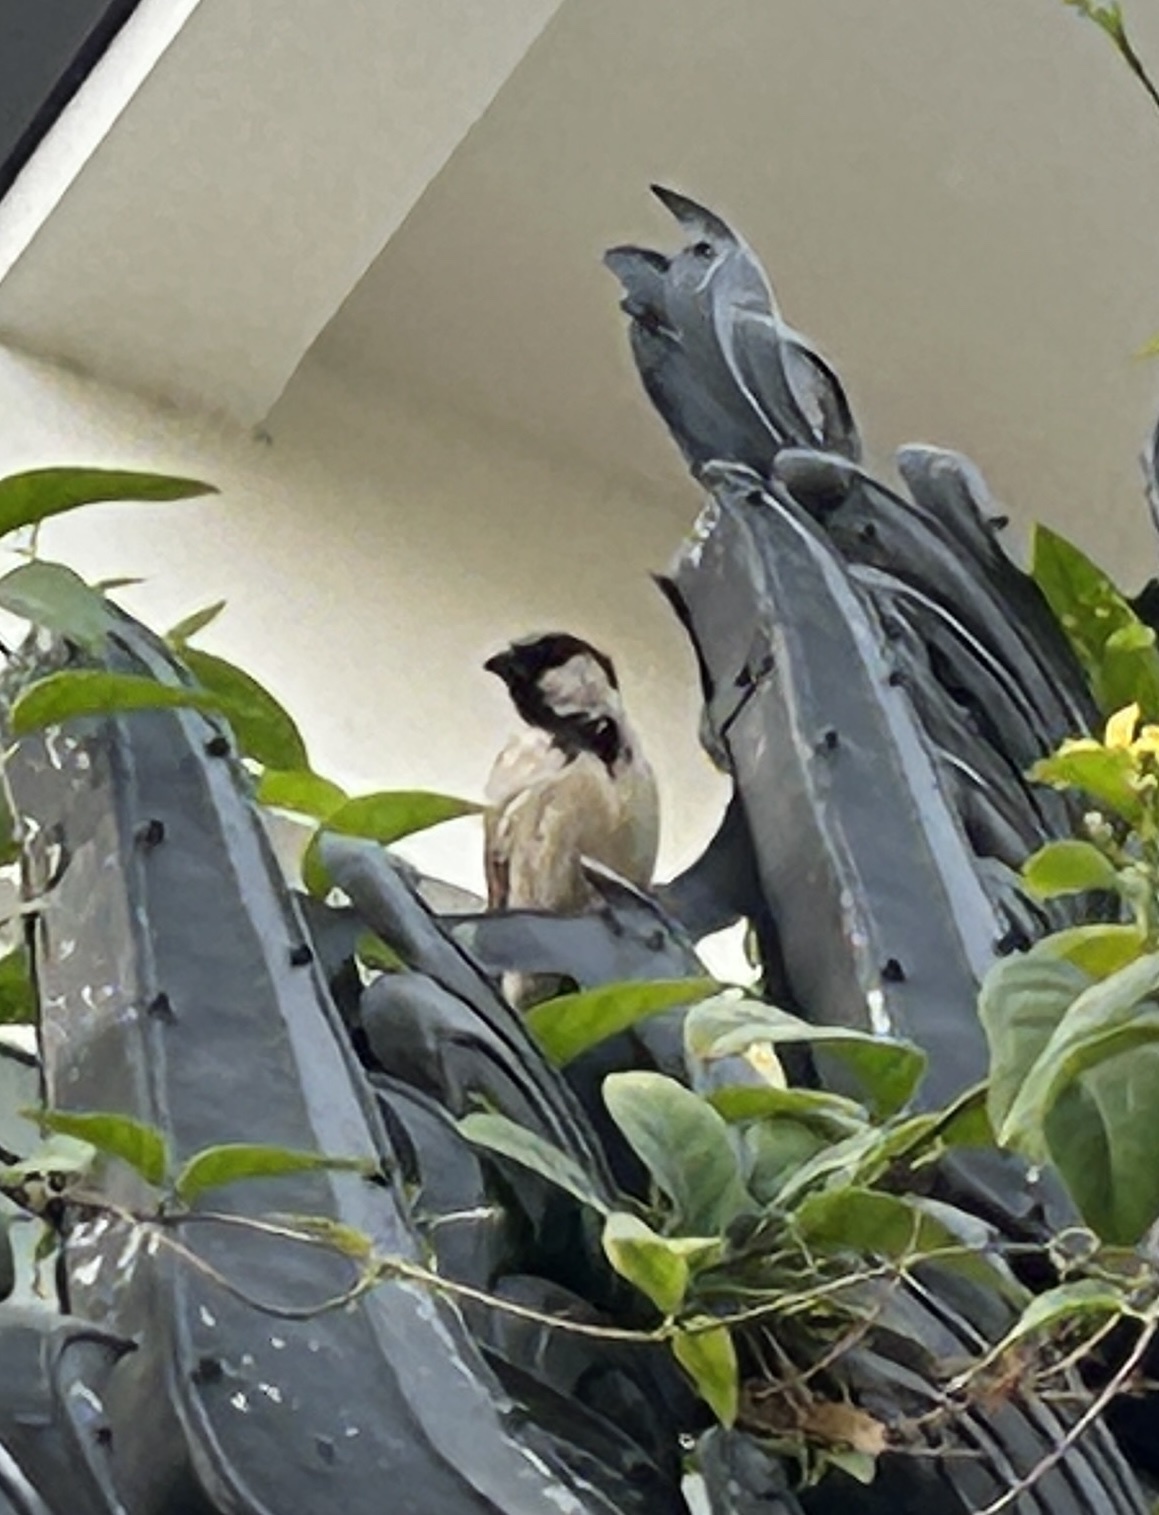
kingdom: Animalia
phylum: Chordata
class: Aves
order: Passeriformes
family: Passeridae
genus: Passer
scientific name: Passer domesticus
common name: House sparrow
